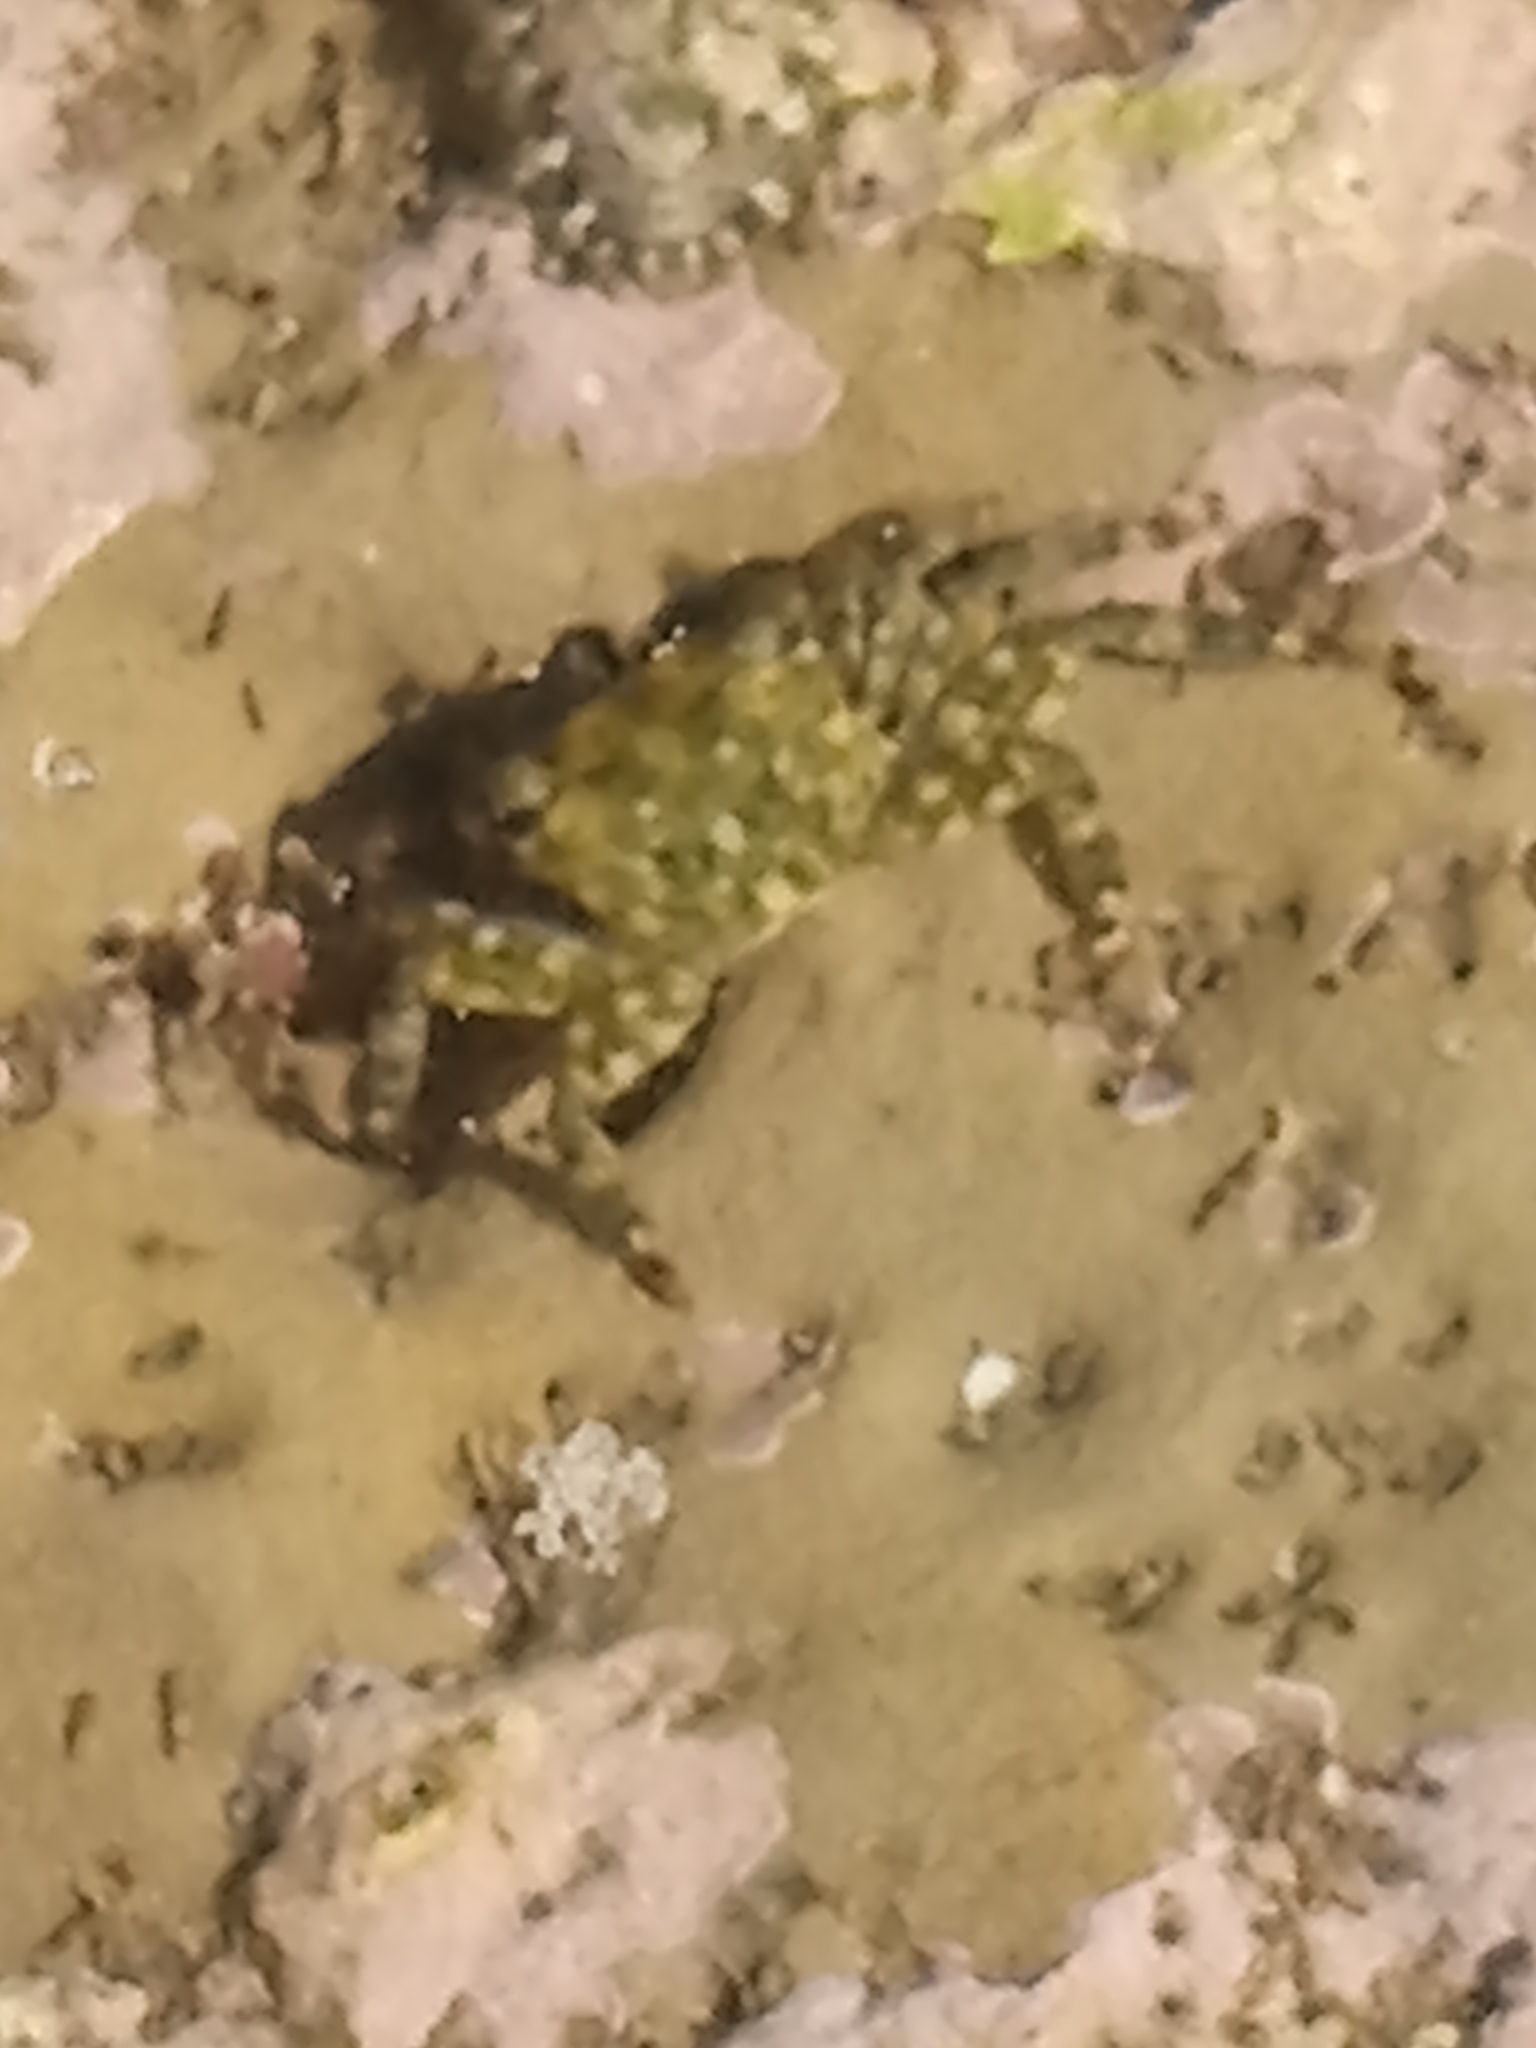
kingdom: Animalia
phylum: Arthropoda
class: Malacostraca
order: Decapoda
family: Grapsidae
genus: Pachygrapsus
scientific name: Pachygrapsus crassipes
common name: Striped shore crab
